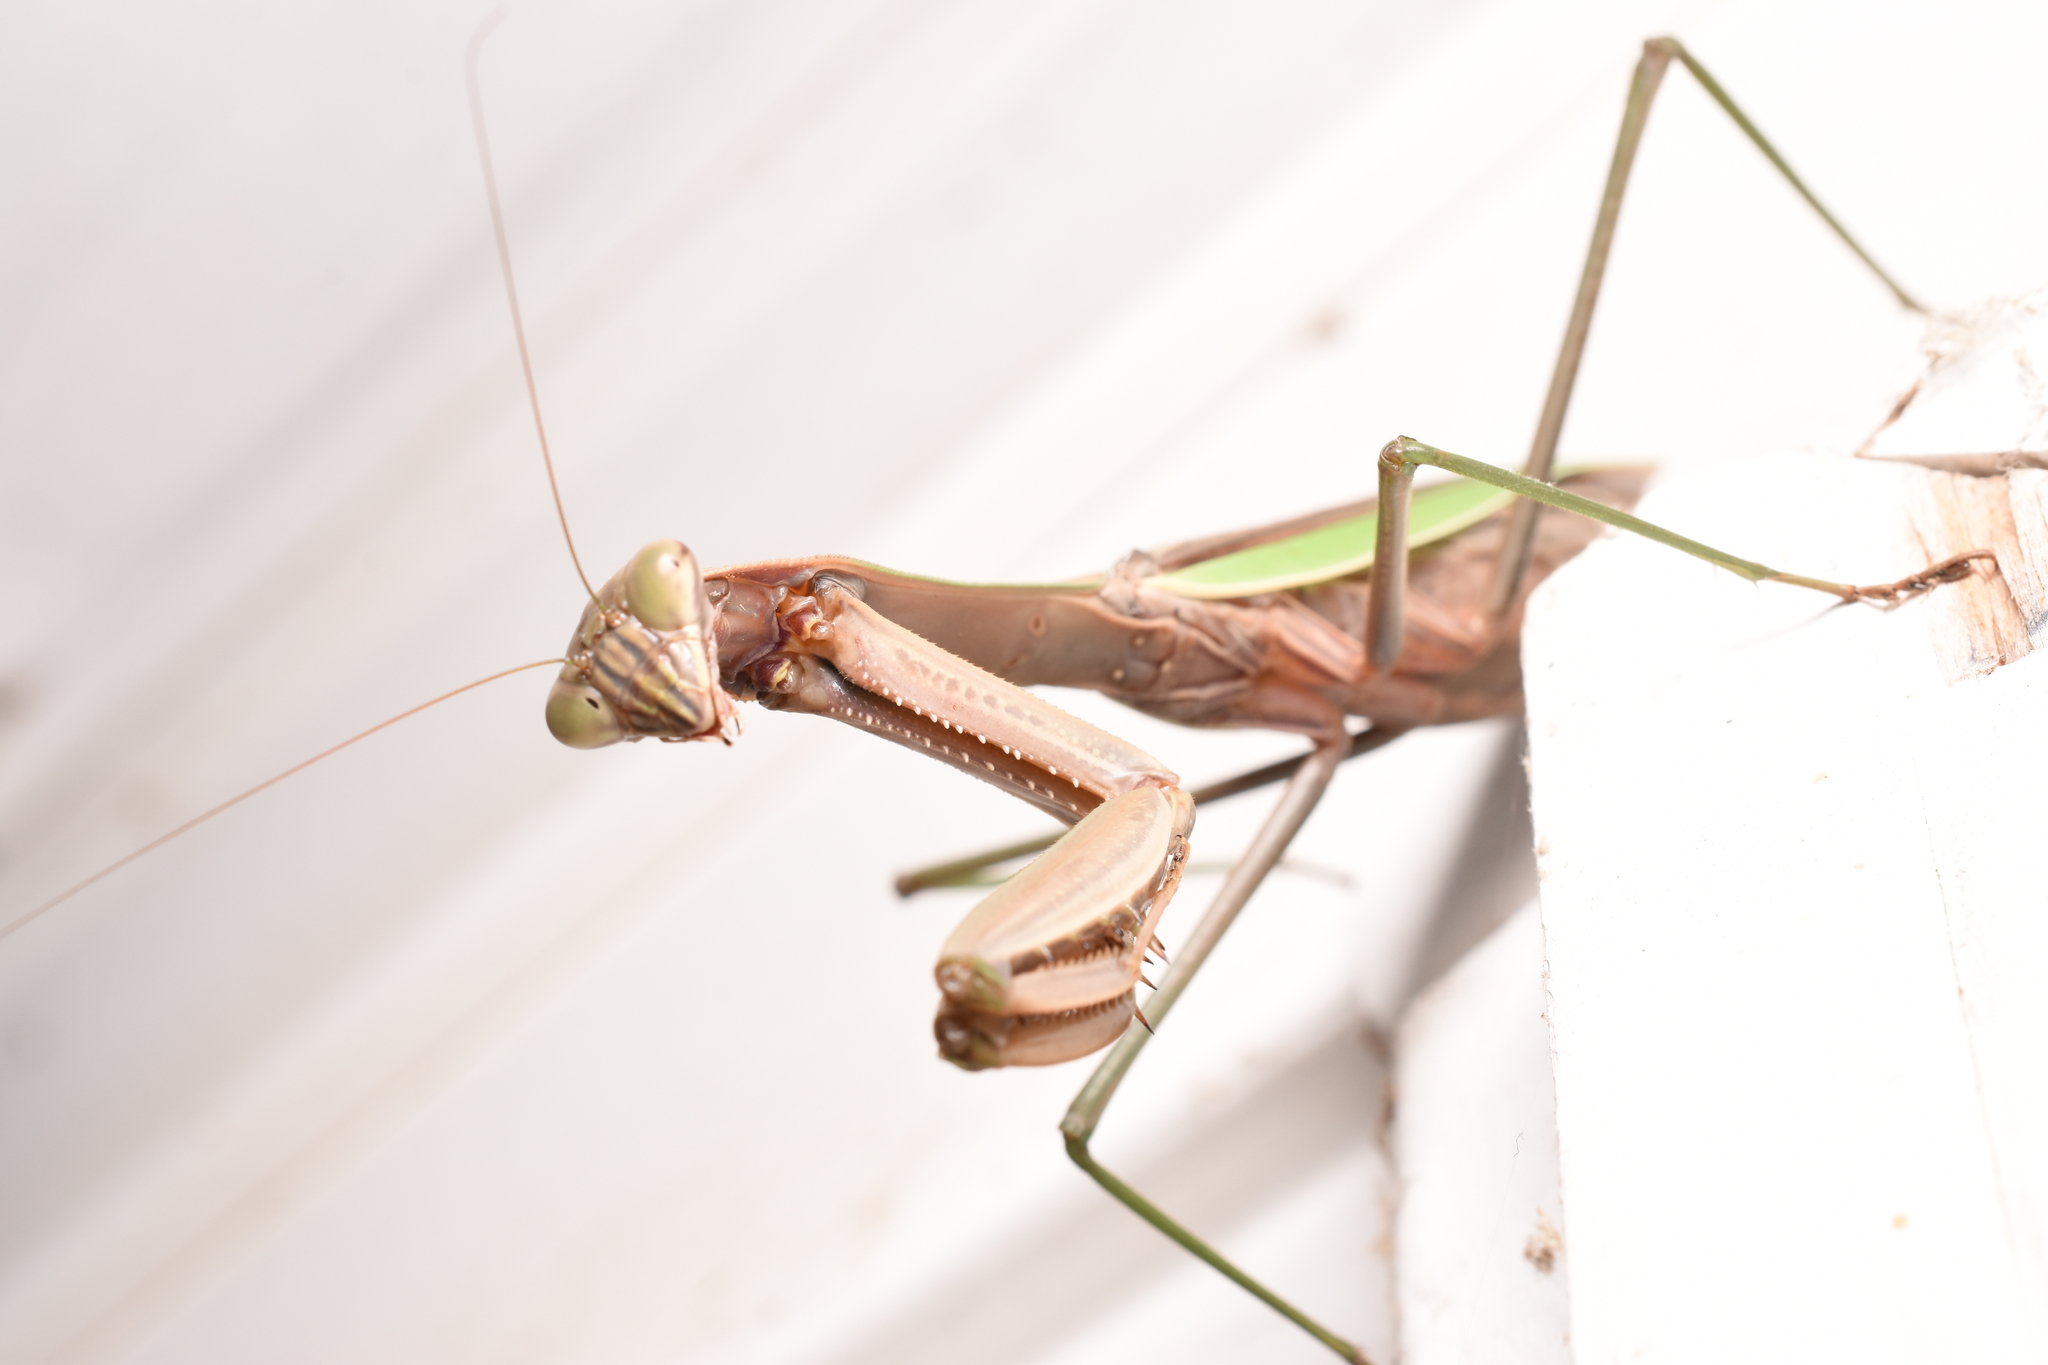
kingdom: Animalia
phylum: Arthropoda
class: Insecta
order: Mantodea
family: Mantidae
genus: Tenodera
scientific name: Tenodera sinensis
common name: Chinese mantis
